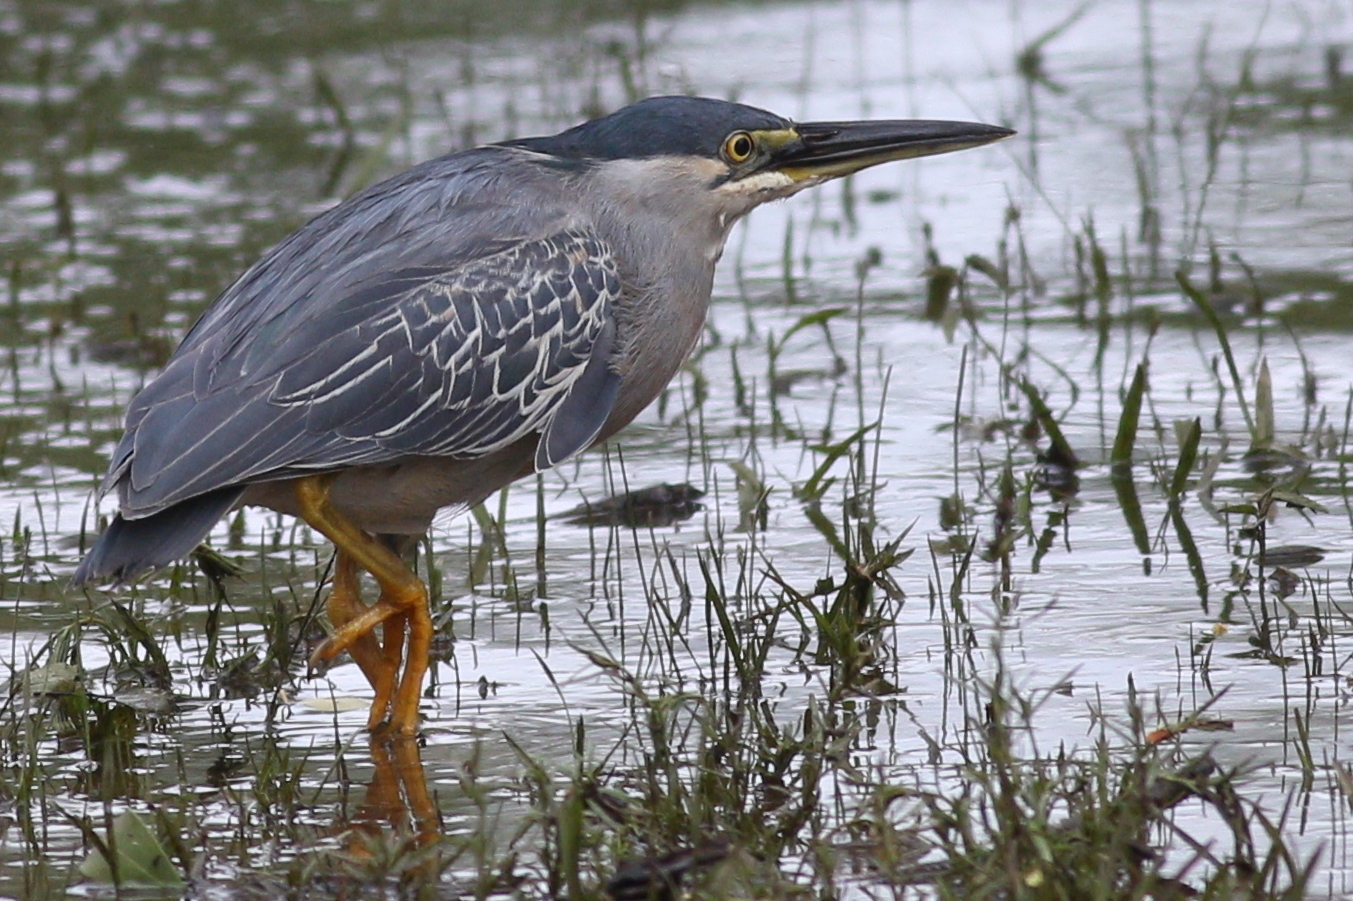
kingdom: Animalia
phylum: Chordata
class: Aves
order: Pelecaniformes
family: Ardeidae
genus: Butorides
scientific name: Butorides striata
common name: Striated heron
